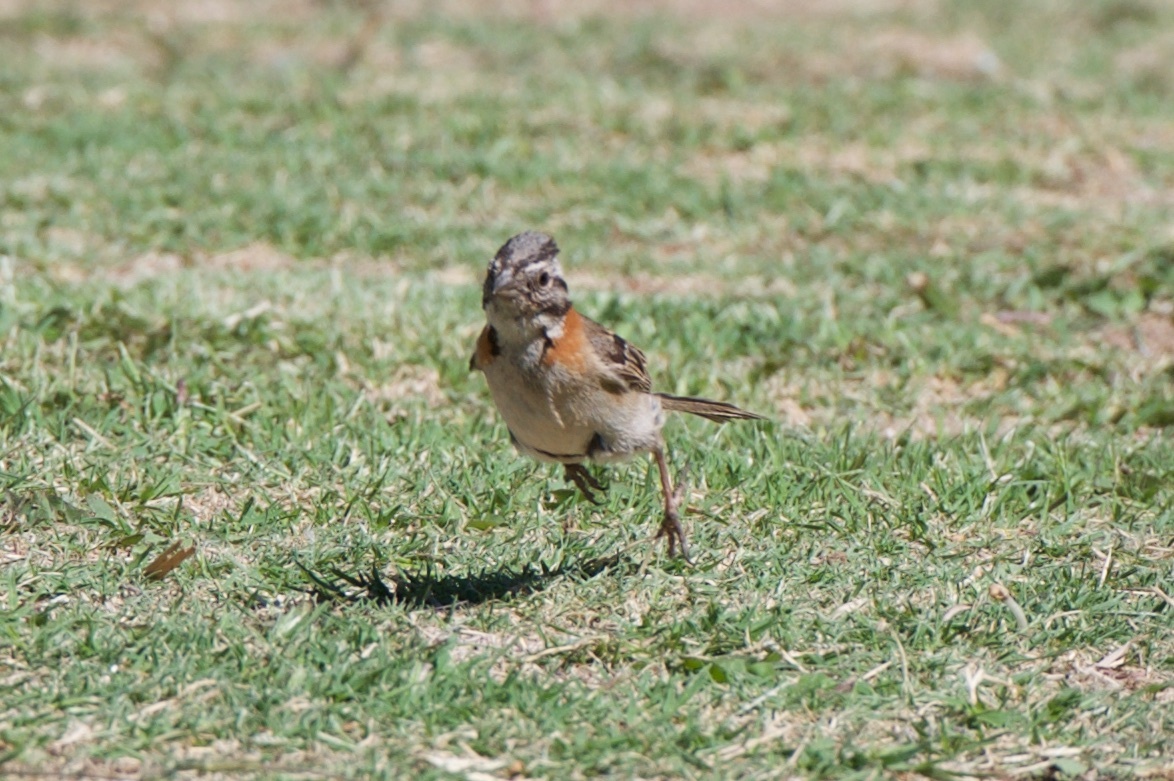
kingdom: Animalia
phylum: Chordata
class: Aves
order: Passeriformes
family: Passerellidae
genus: Zonotrichia
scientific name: Zonotrichia capensis
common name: Rufous-collared sparrow
